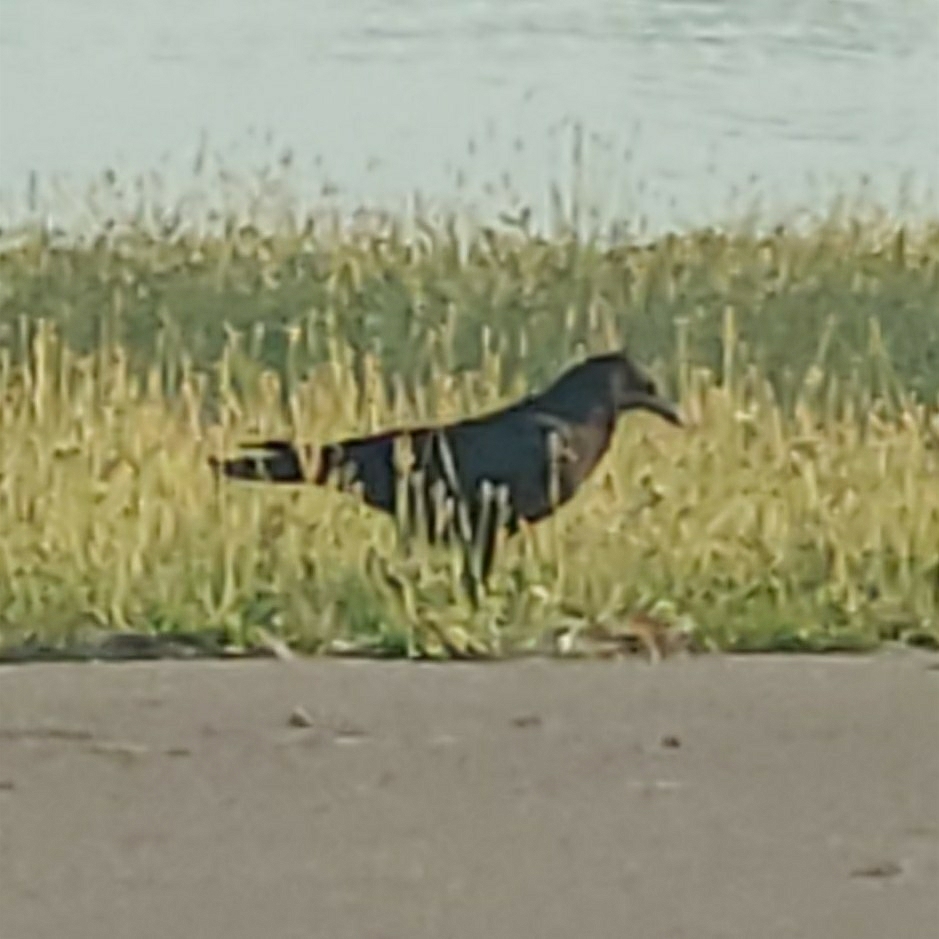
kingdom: Animalia
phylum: Chordata
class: Aves
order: Passeriformes
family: Corvidae
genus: Corvus
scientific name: Corvus brachyrhynchos
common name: American crow
